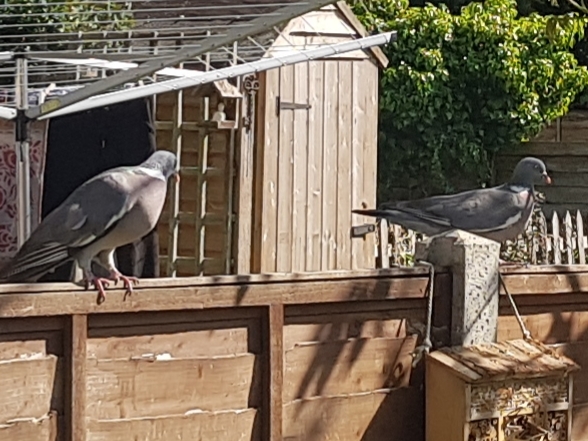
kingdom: Animalia
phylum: Chordata
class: Aves
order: Columbiformes
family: Columbidae
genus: Columba
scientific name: Columba palumbus
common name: Common wood pigeon
